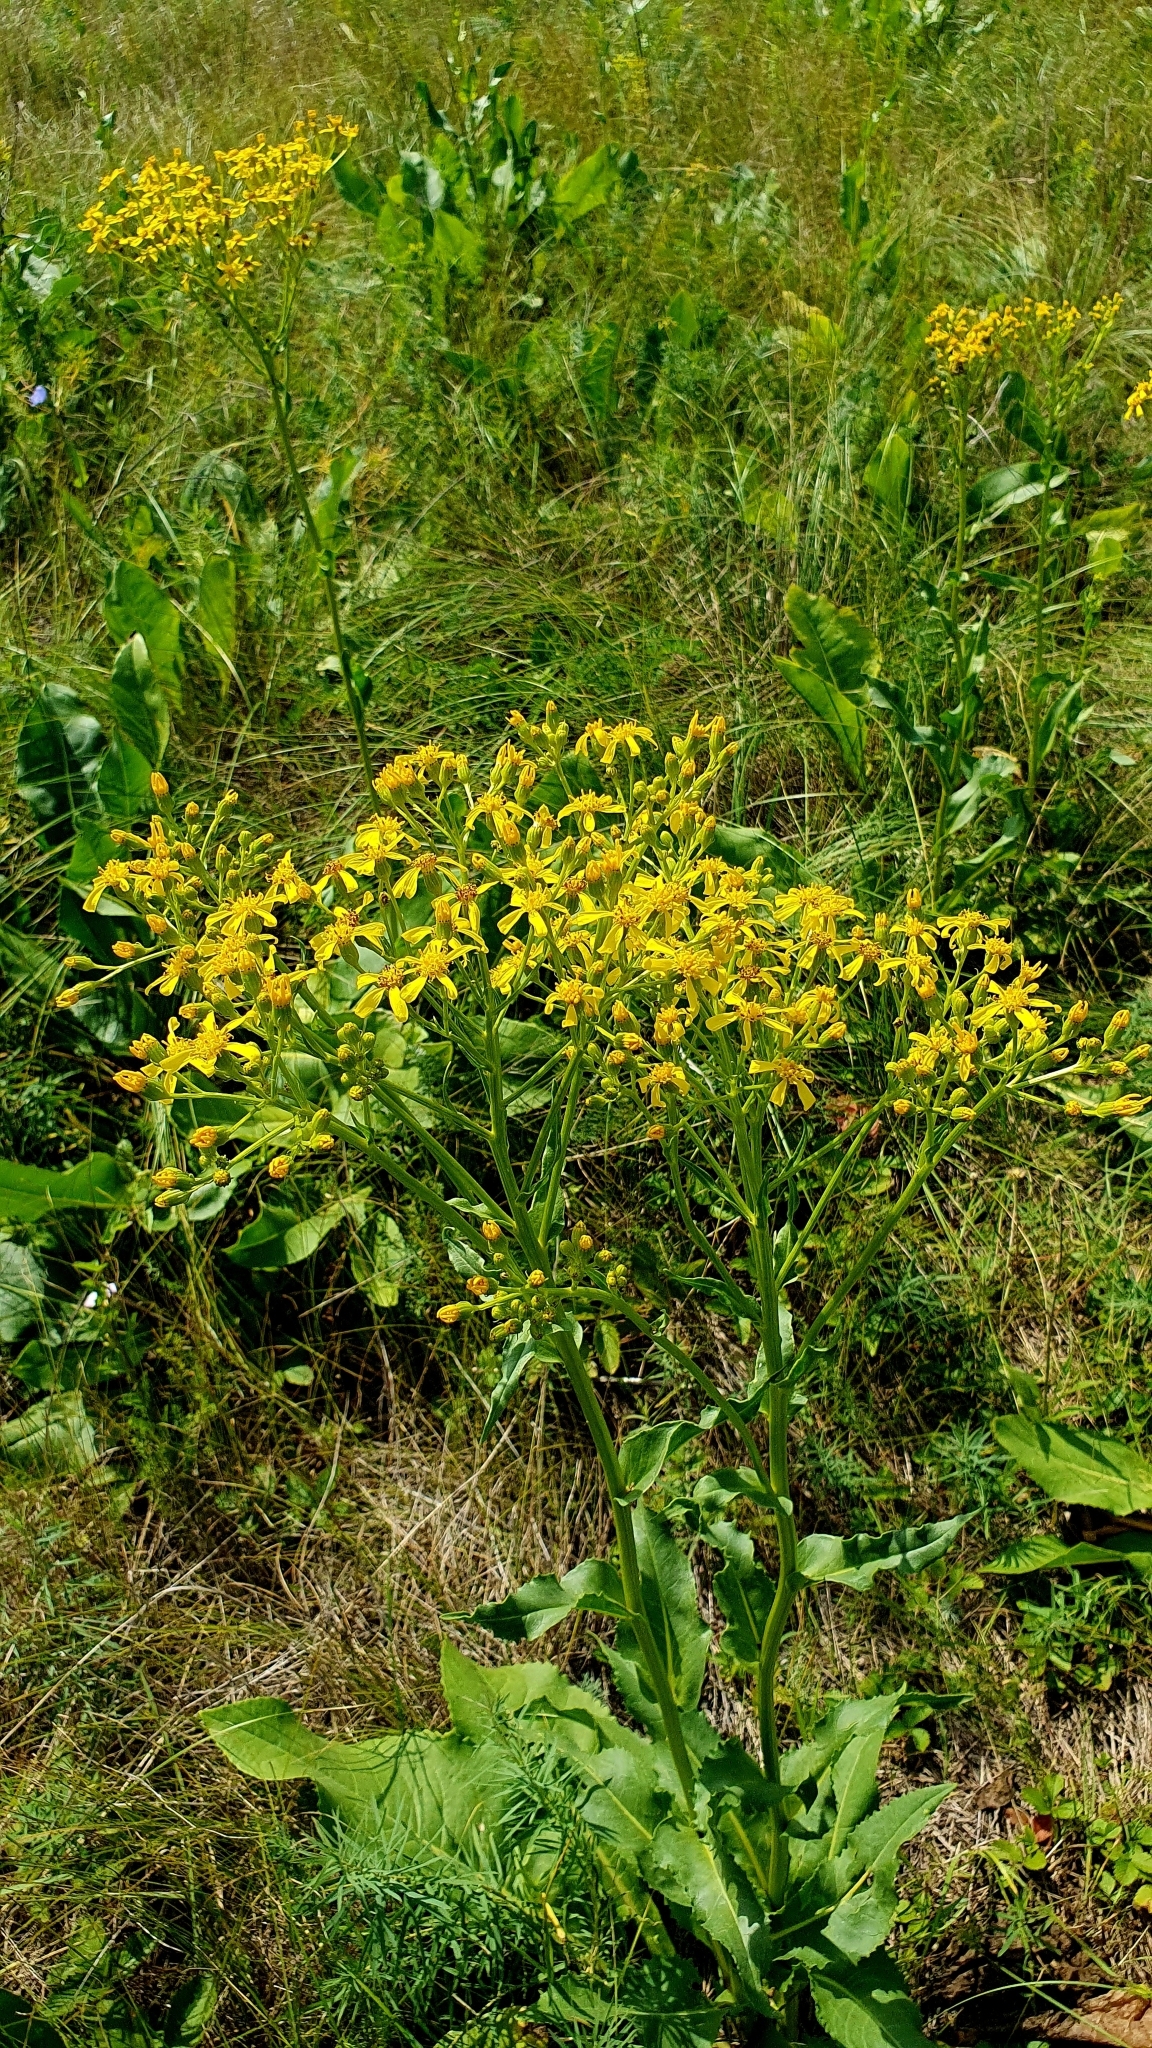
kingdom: Plantae
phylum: Tracheophyta
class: Magnoliopsida
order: Asterales
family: Asteraceae
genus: Senecio
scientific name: Senecio doria
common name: Golden ragwort
